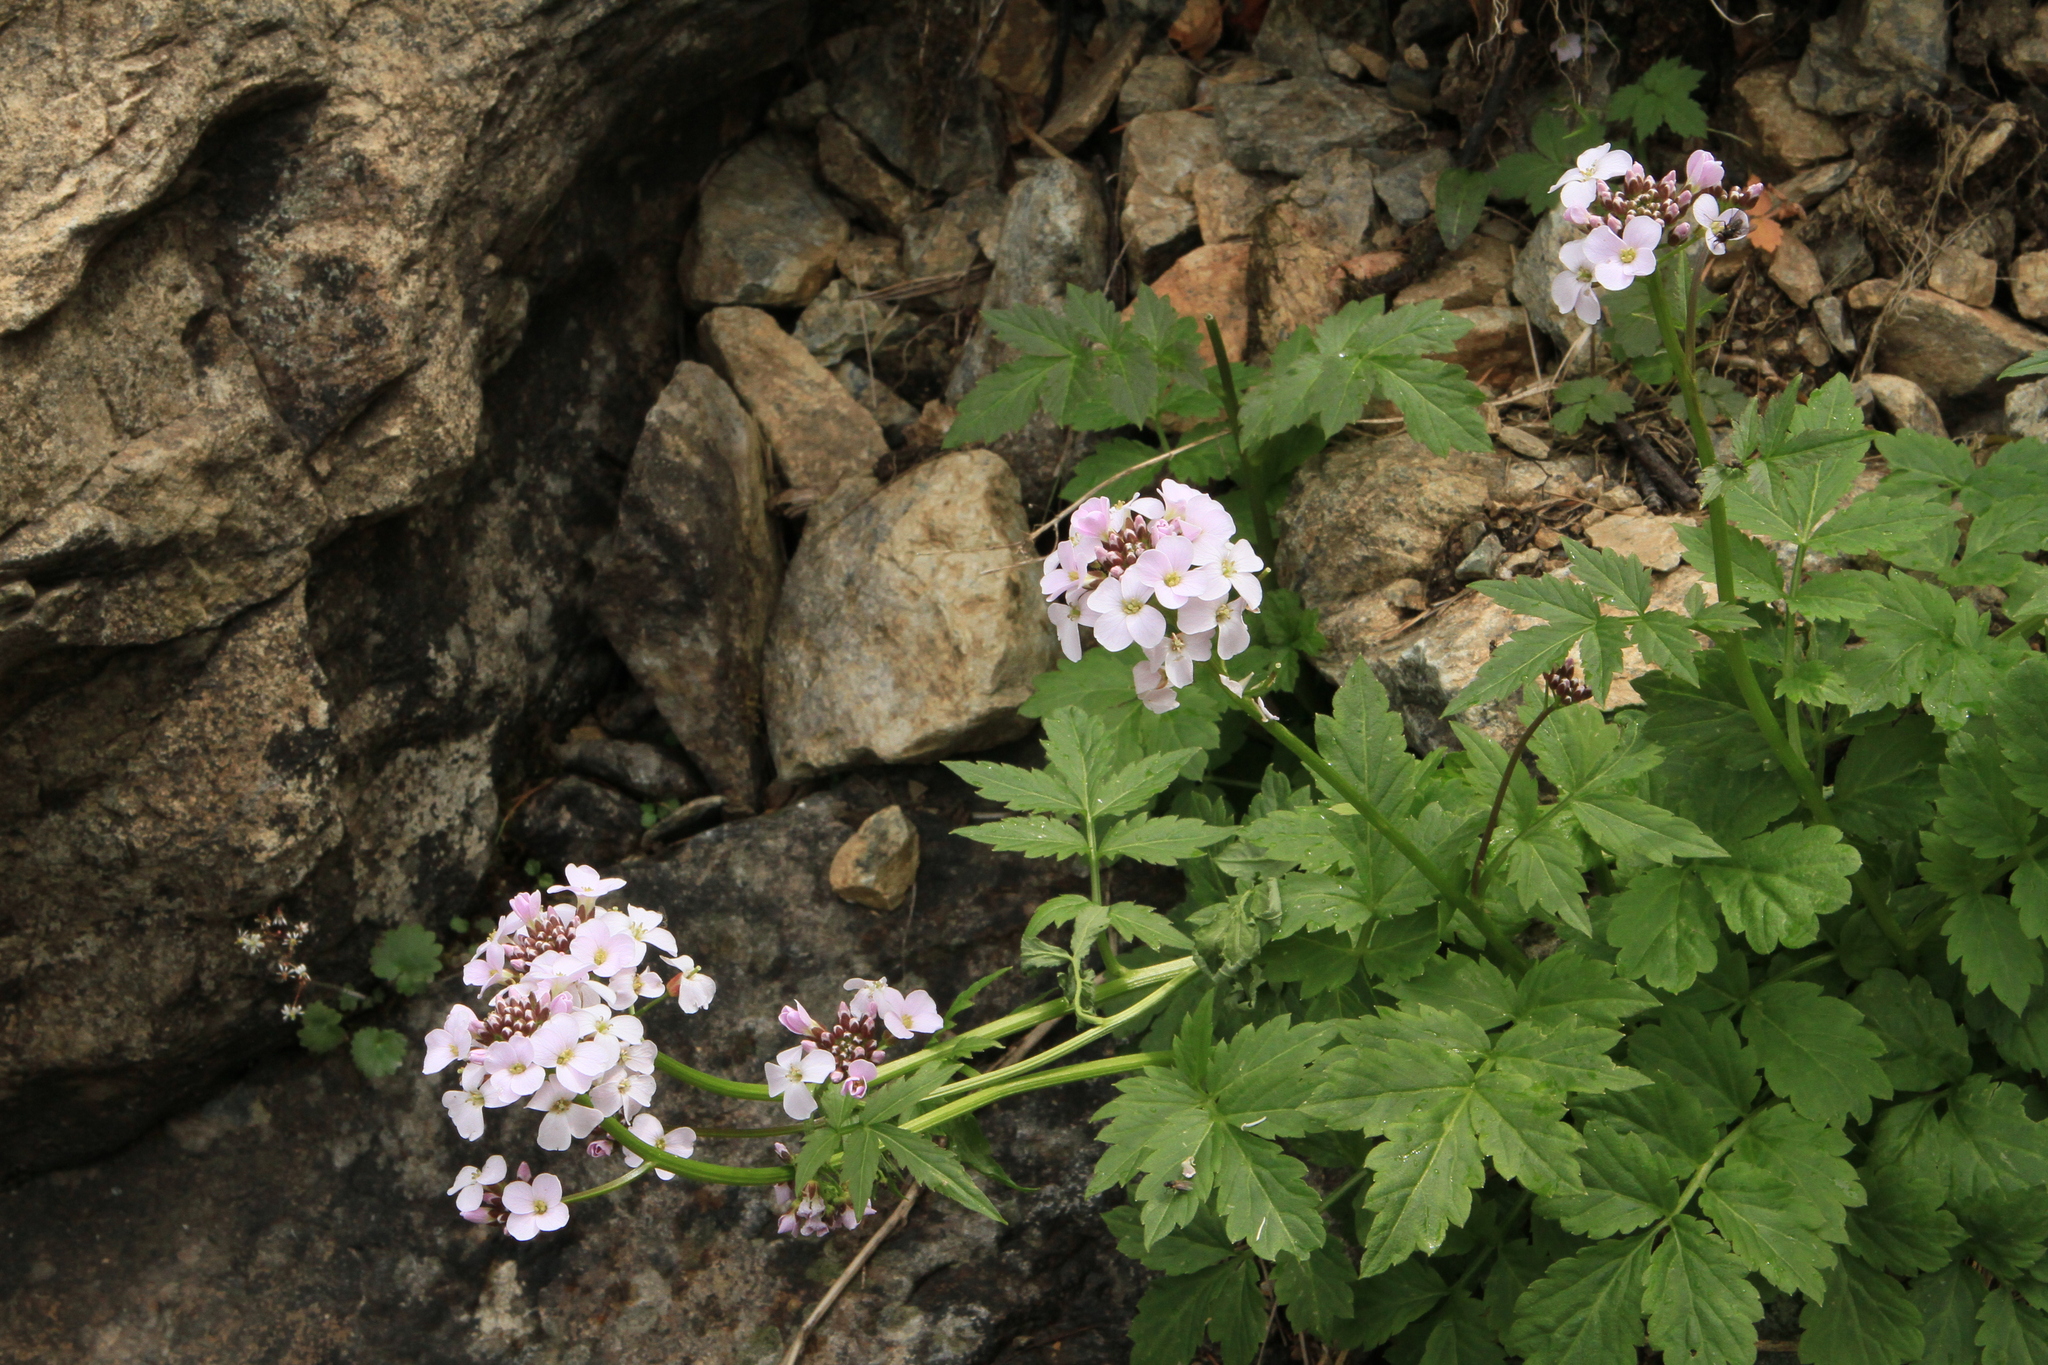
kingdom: Plantae
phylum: Tracheophyta
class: Magnoliopsida
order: Brassicales
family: Brassicaceae
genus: Cardamine
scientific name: Cardamine macrophylla
